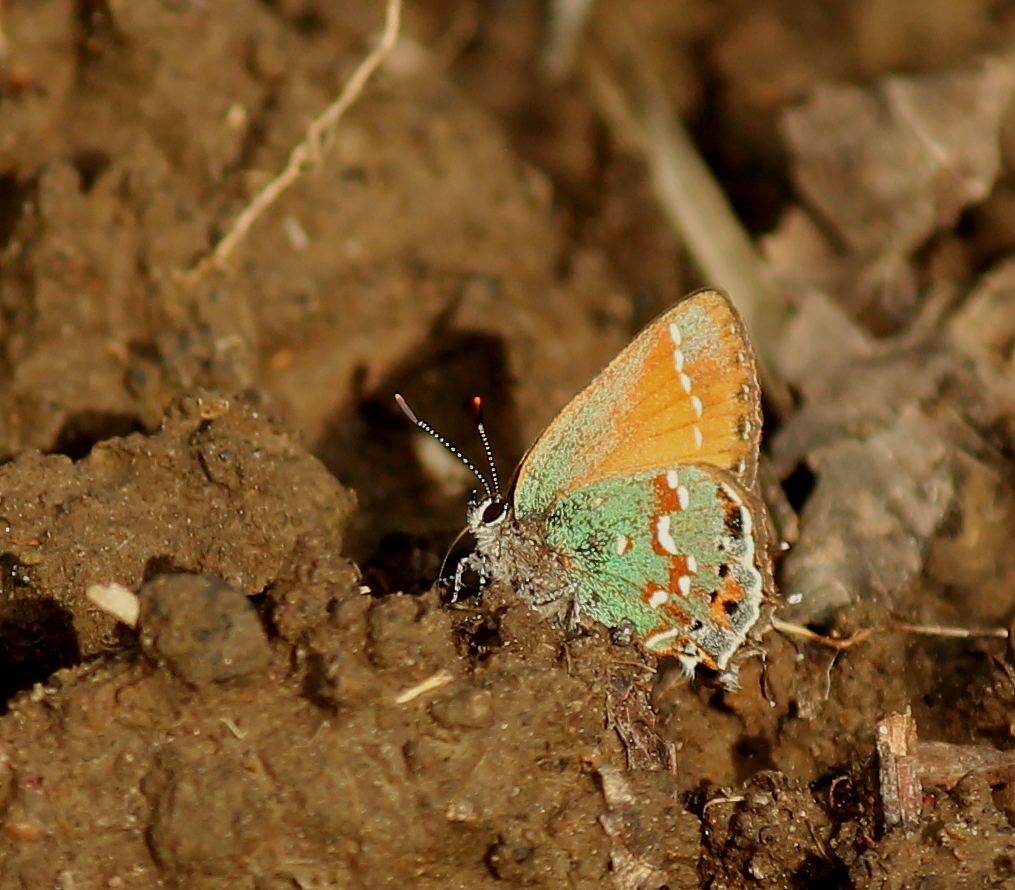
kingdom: Animalia
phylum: Arthropoda
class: Insecta
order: Lepidoptera
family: Lycaenidae
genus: Mitoura
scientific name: Mitoura gryneus
